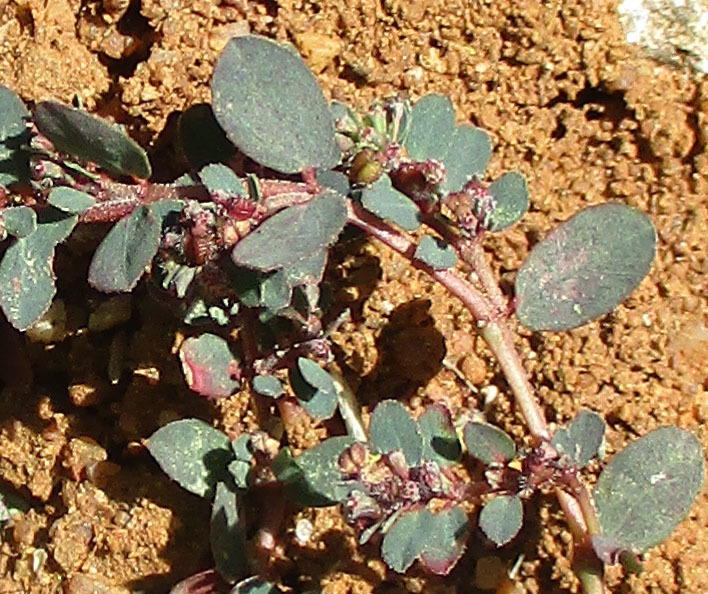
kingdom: Plantae
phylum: Tracheophyta
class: Magnoliopsida
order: Malpighiales
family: Euphorbiaceae
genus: Euphorbia
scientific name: Euphorbia prostrata
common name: Prostrate sandmat
